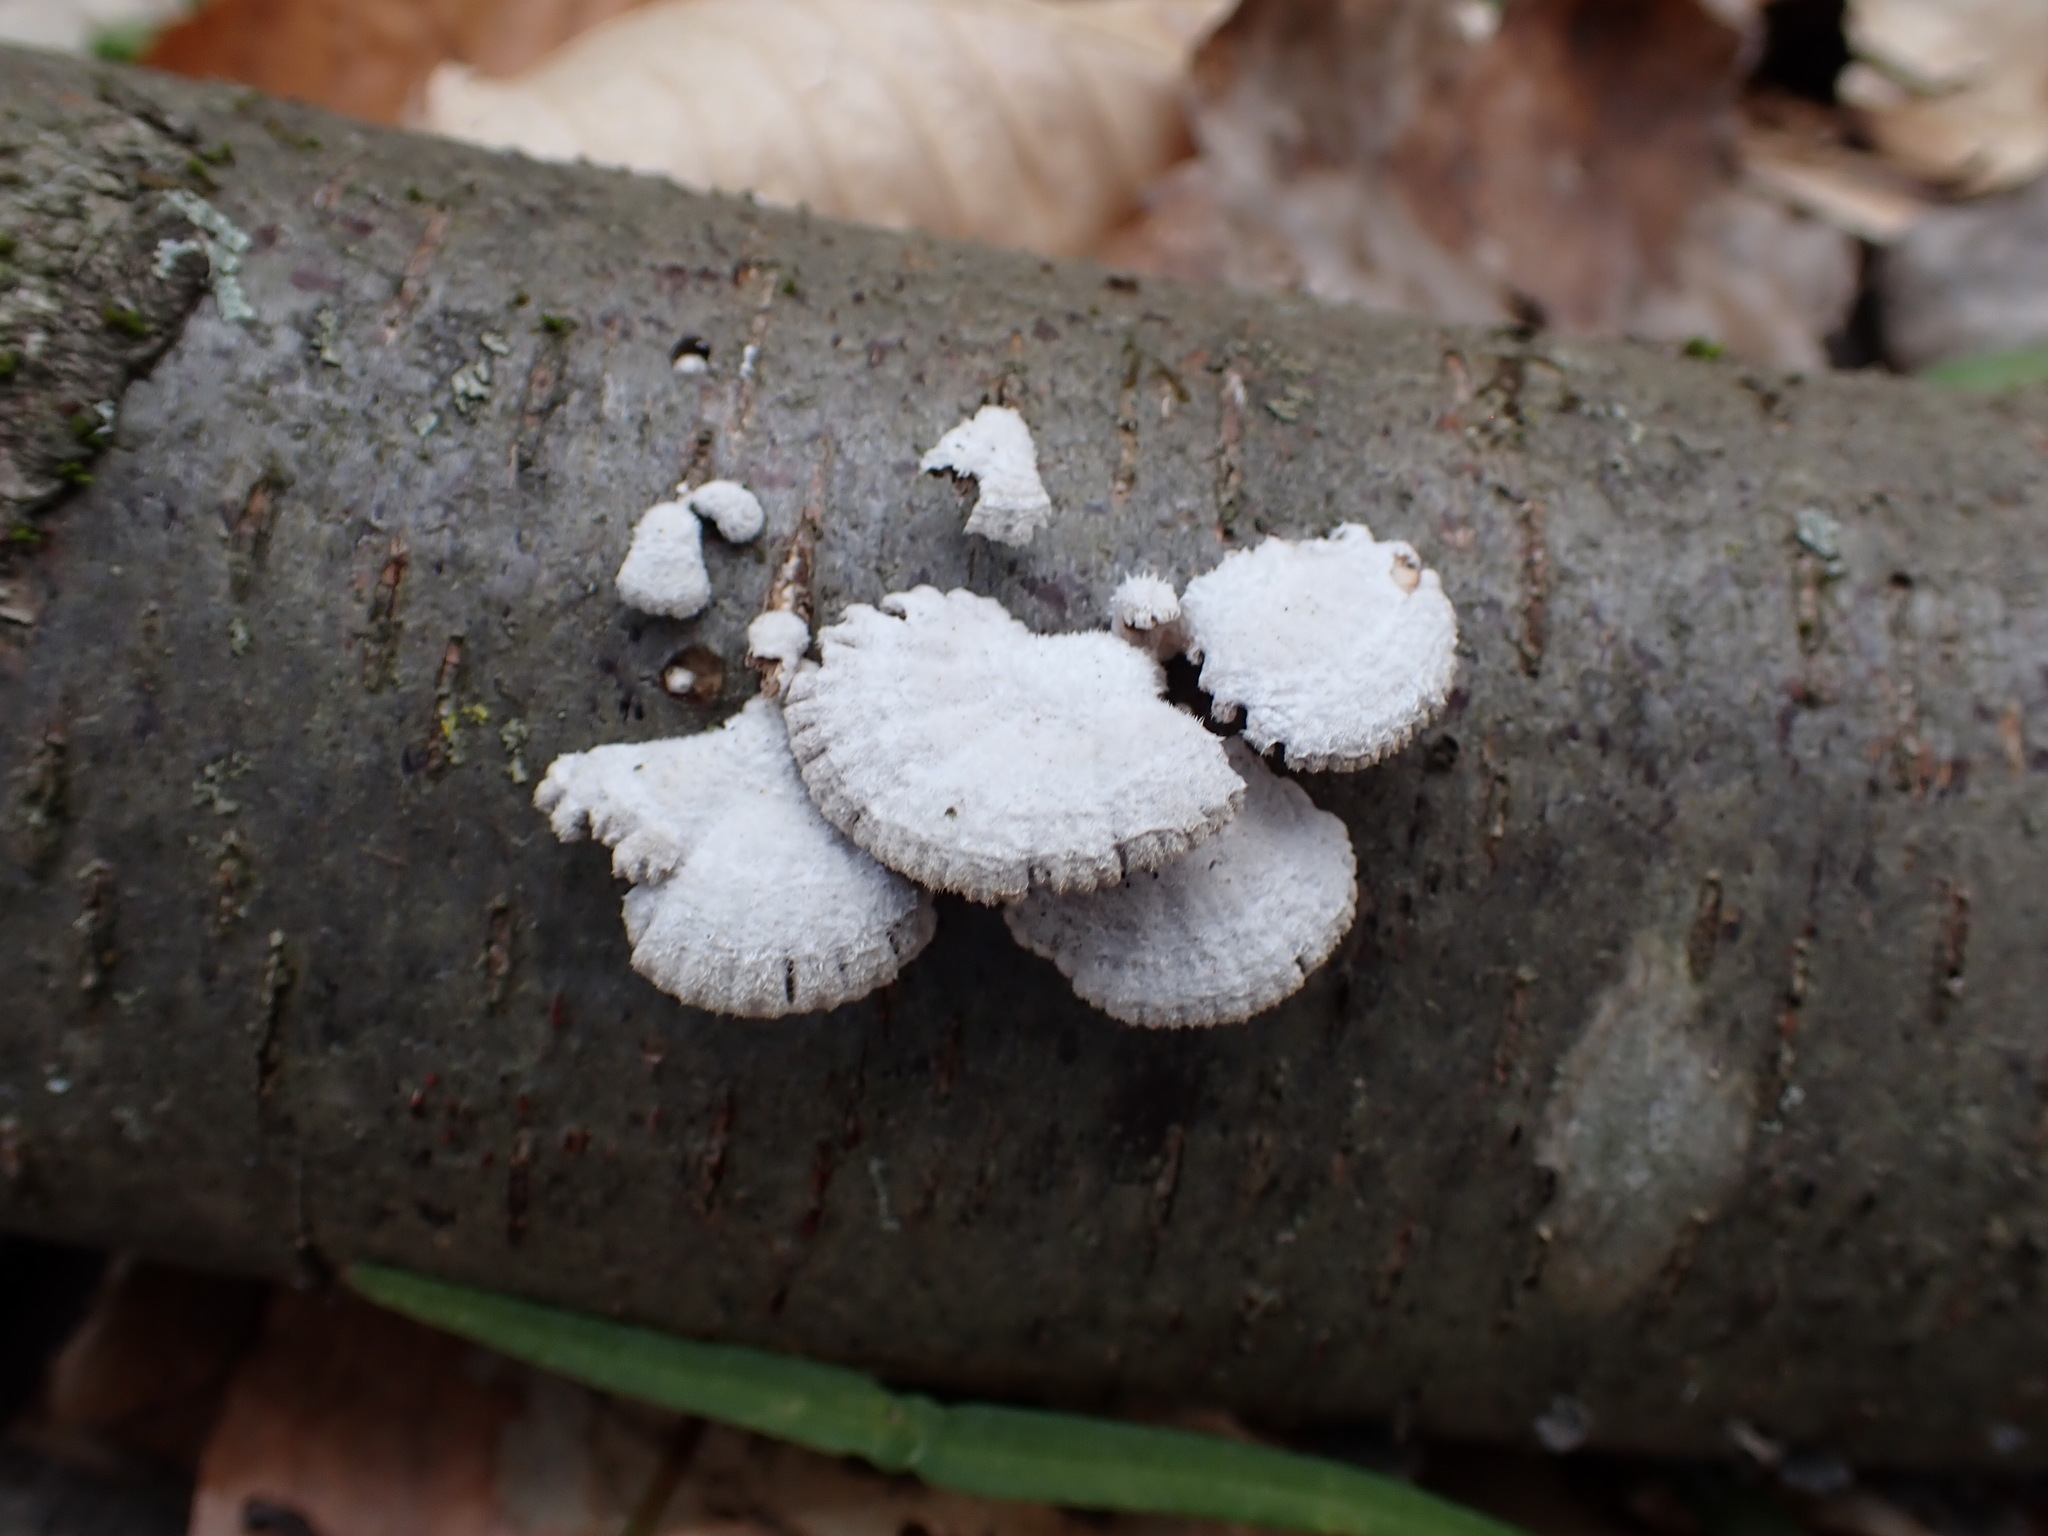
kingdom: Fungi
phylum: Basidiomycota
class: Agaricomycetes
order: Agaricales
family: Schizophyllaceae
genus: Schizophyllum
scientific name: Schizophyllum commune
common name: Common porecrust
